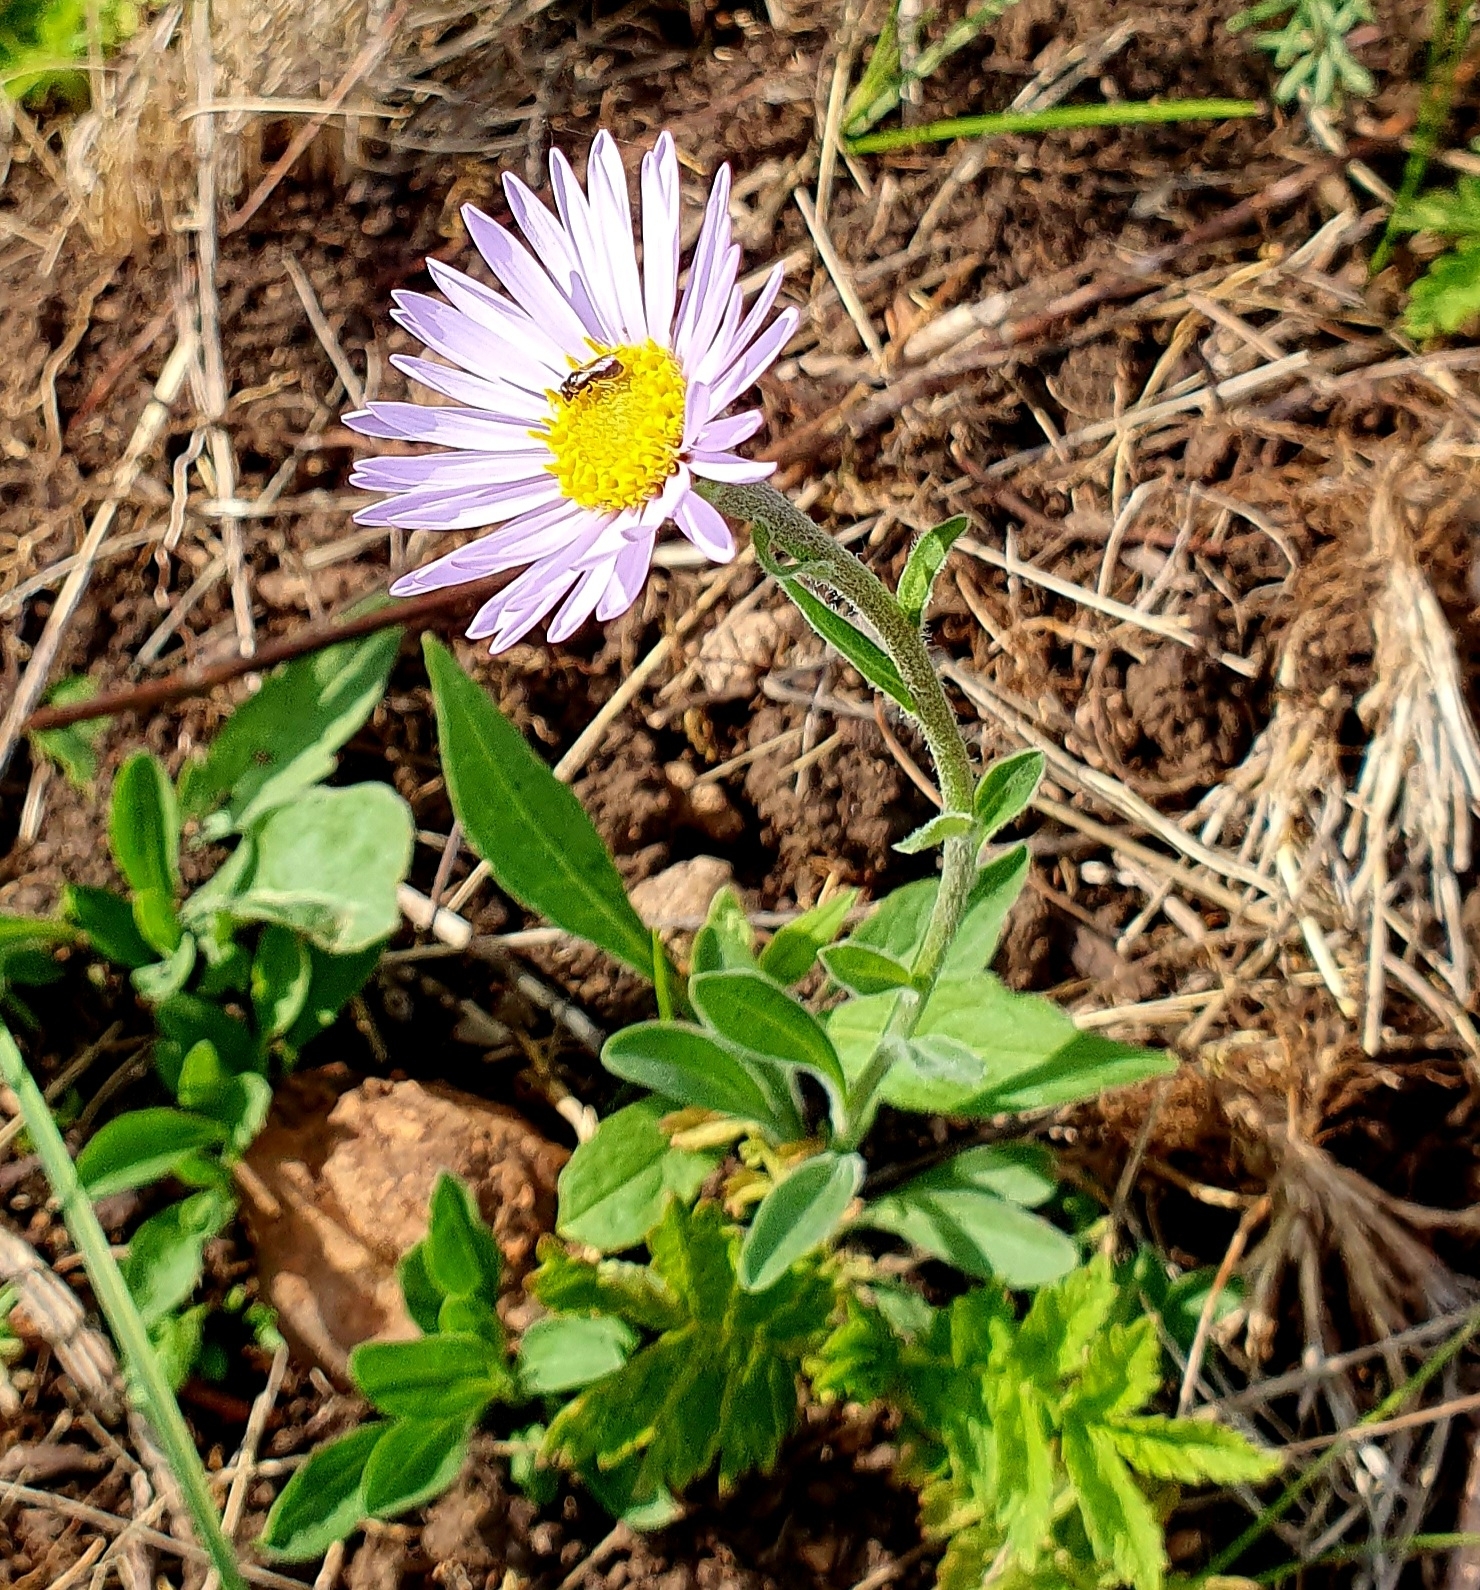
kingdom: Plantae
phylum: Tracheophyta
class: Magnoliopsida
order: Asterales
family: Asteraceae
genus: Aster
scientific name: Aster alpinus
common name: Alpine aster
